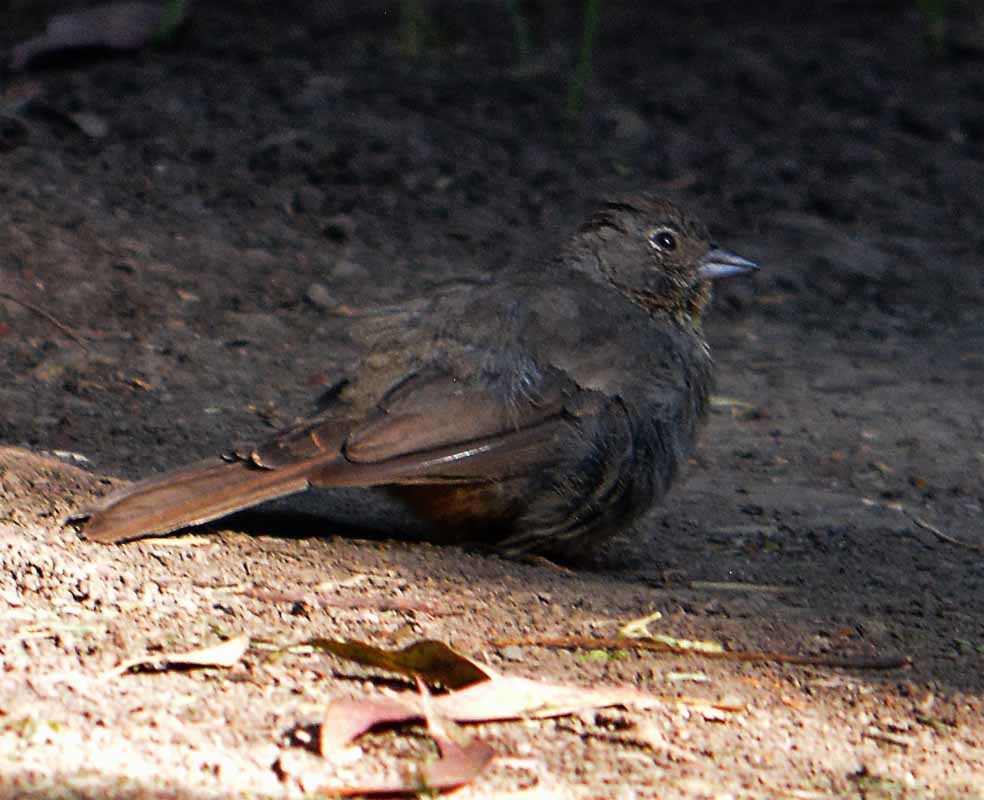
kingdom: Animalia
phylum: Chordata
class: Aves
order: Passeriformes
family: Passerellidae
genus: Melozone
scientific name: Melozone fusca
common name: Canyon towhee
